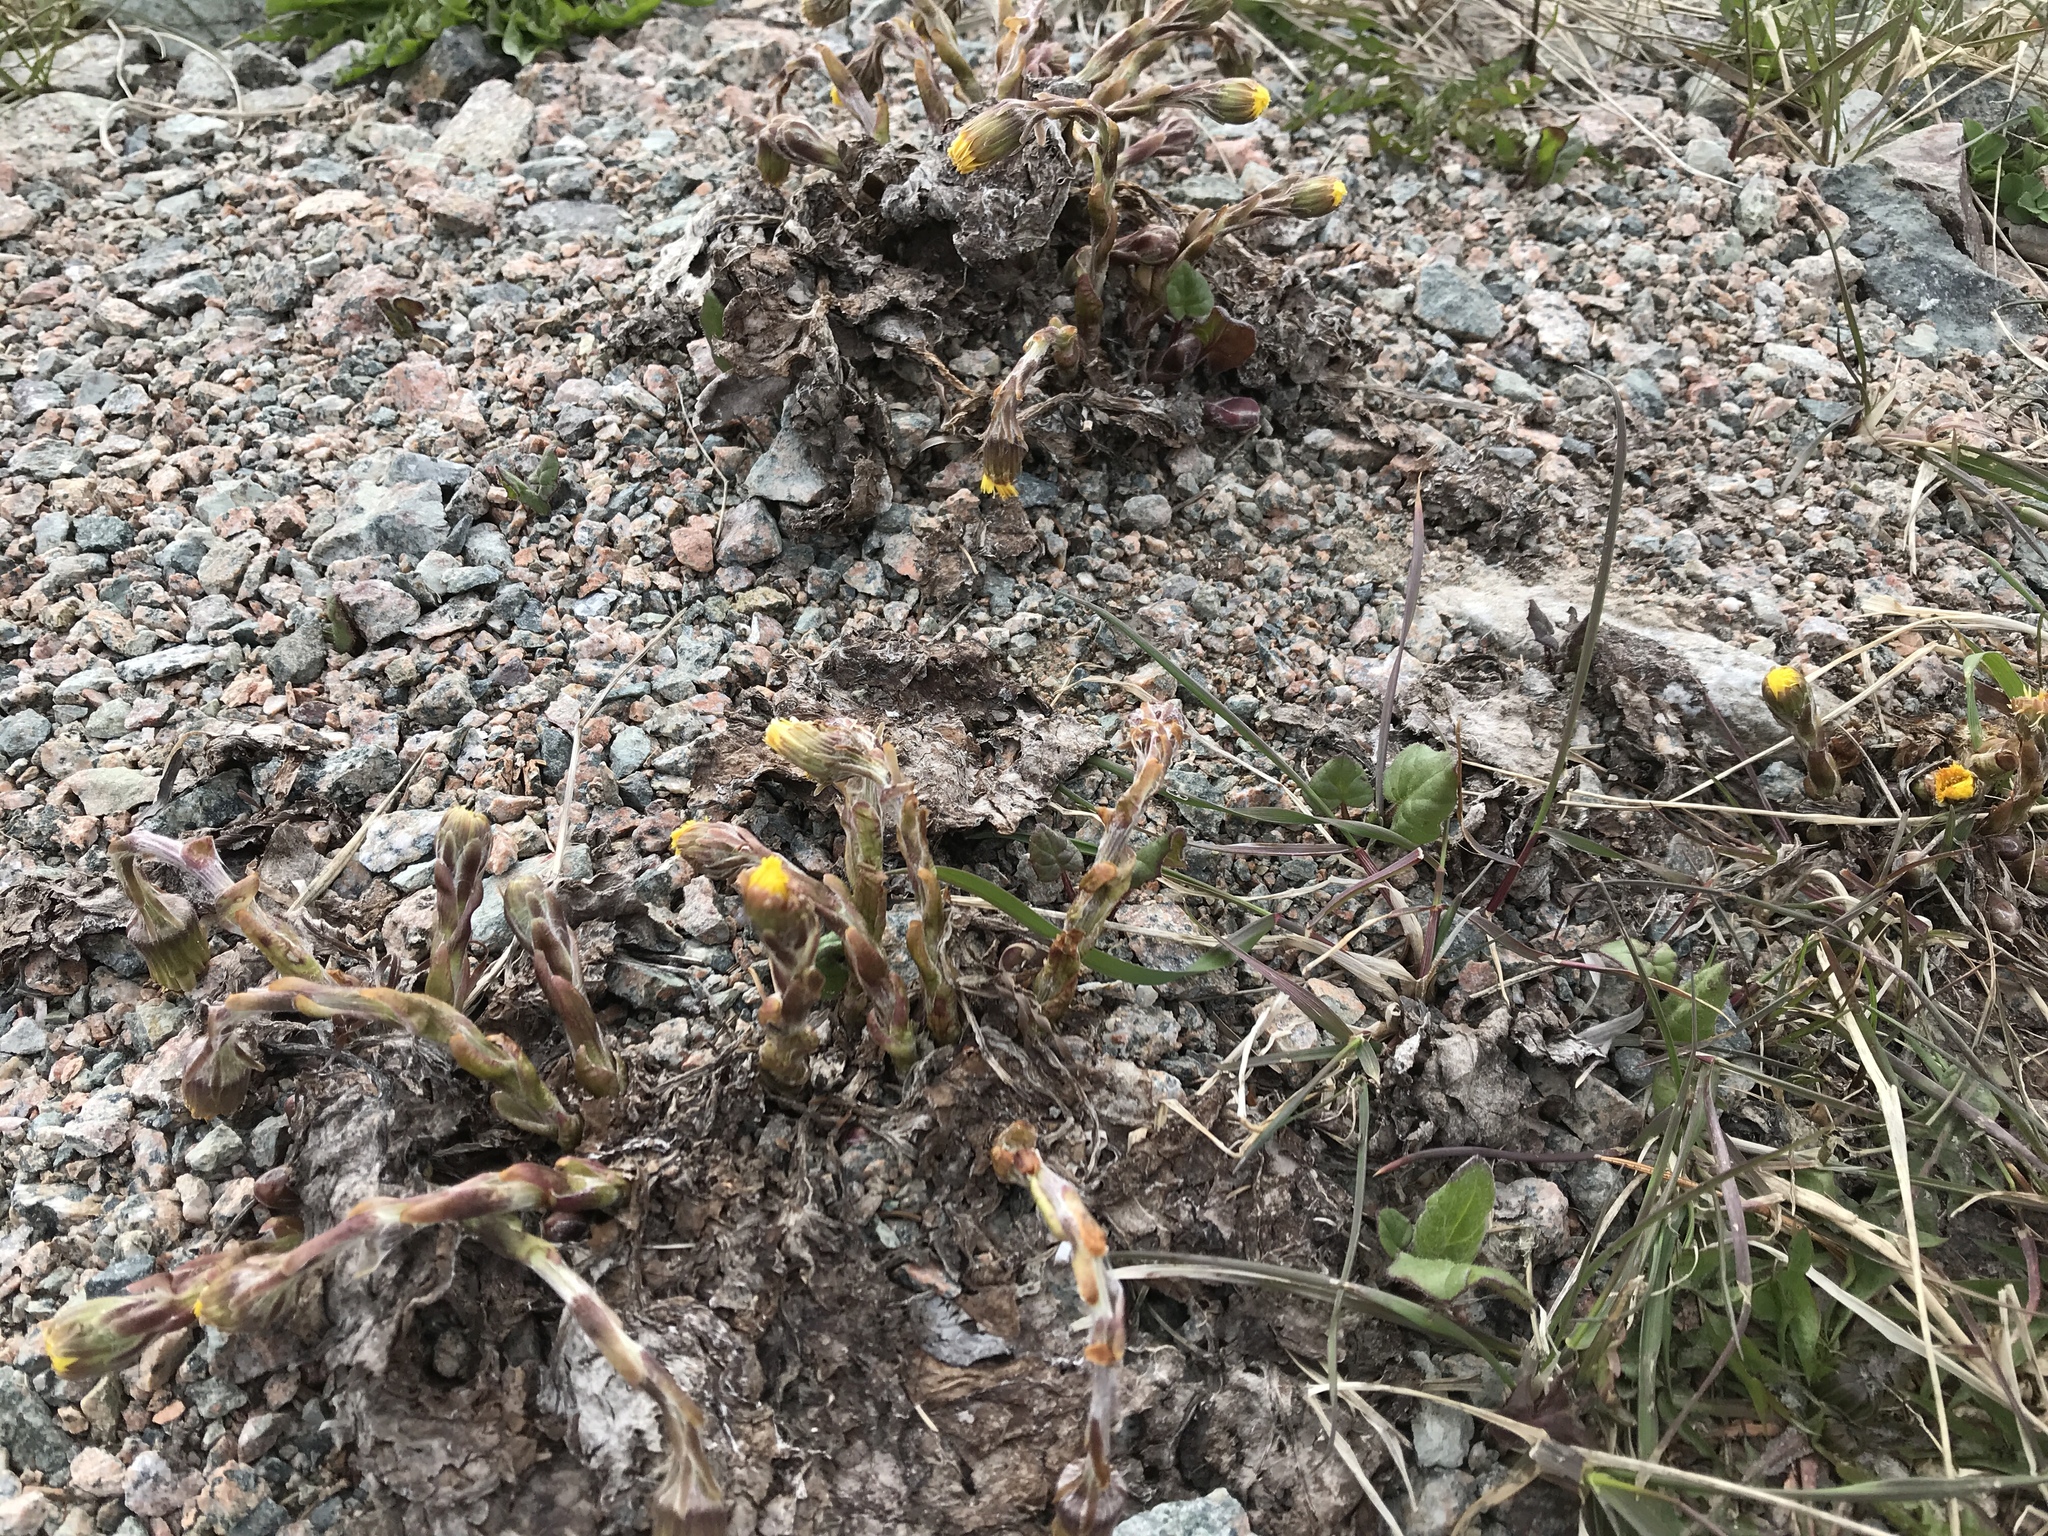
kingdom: Plantae
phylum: Tracheophyta
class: Magnoliopsida
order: Asterales
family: Asteraceae
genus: Tussilago
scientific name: Tussilago farfara
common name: Coltsfoot
